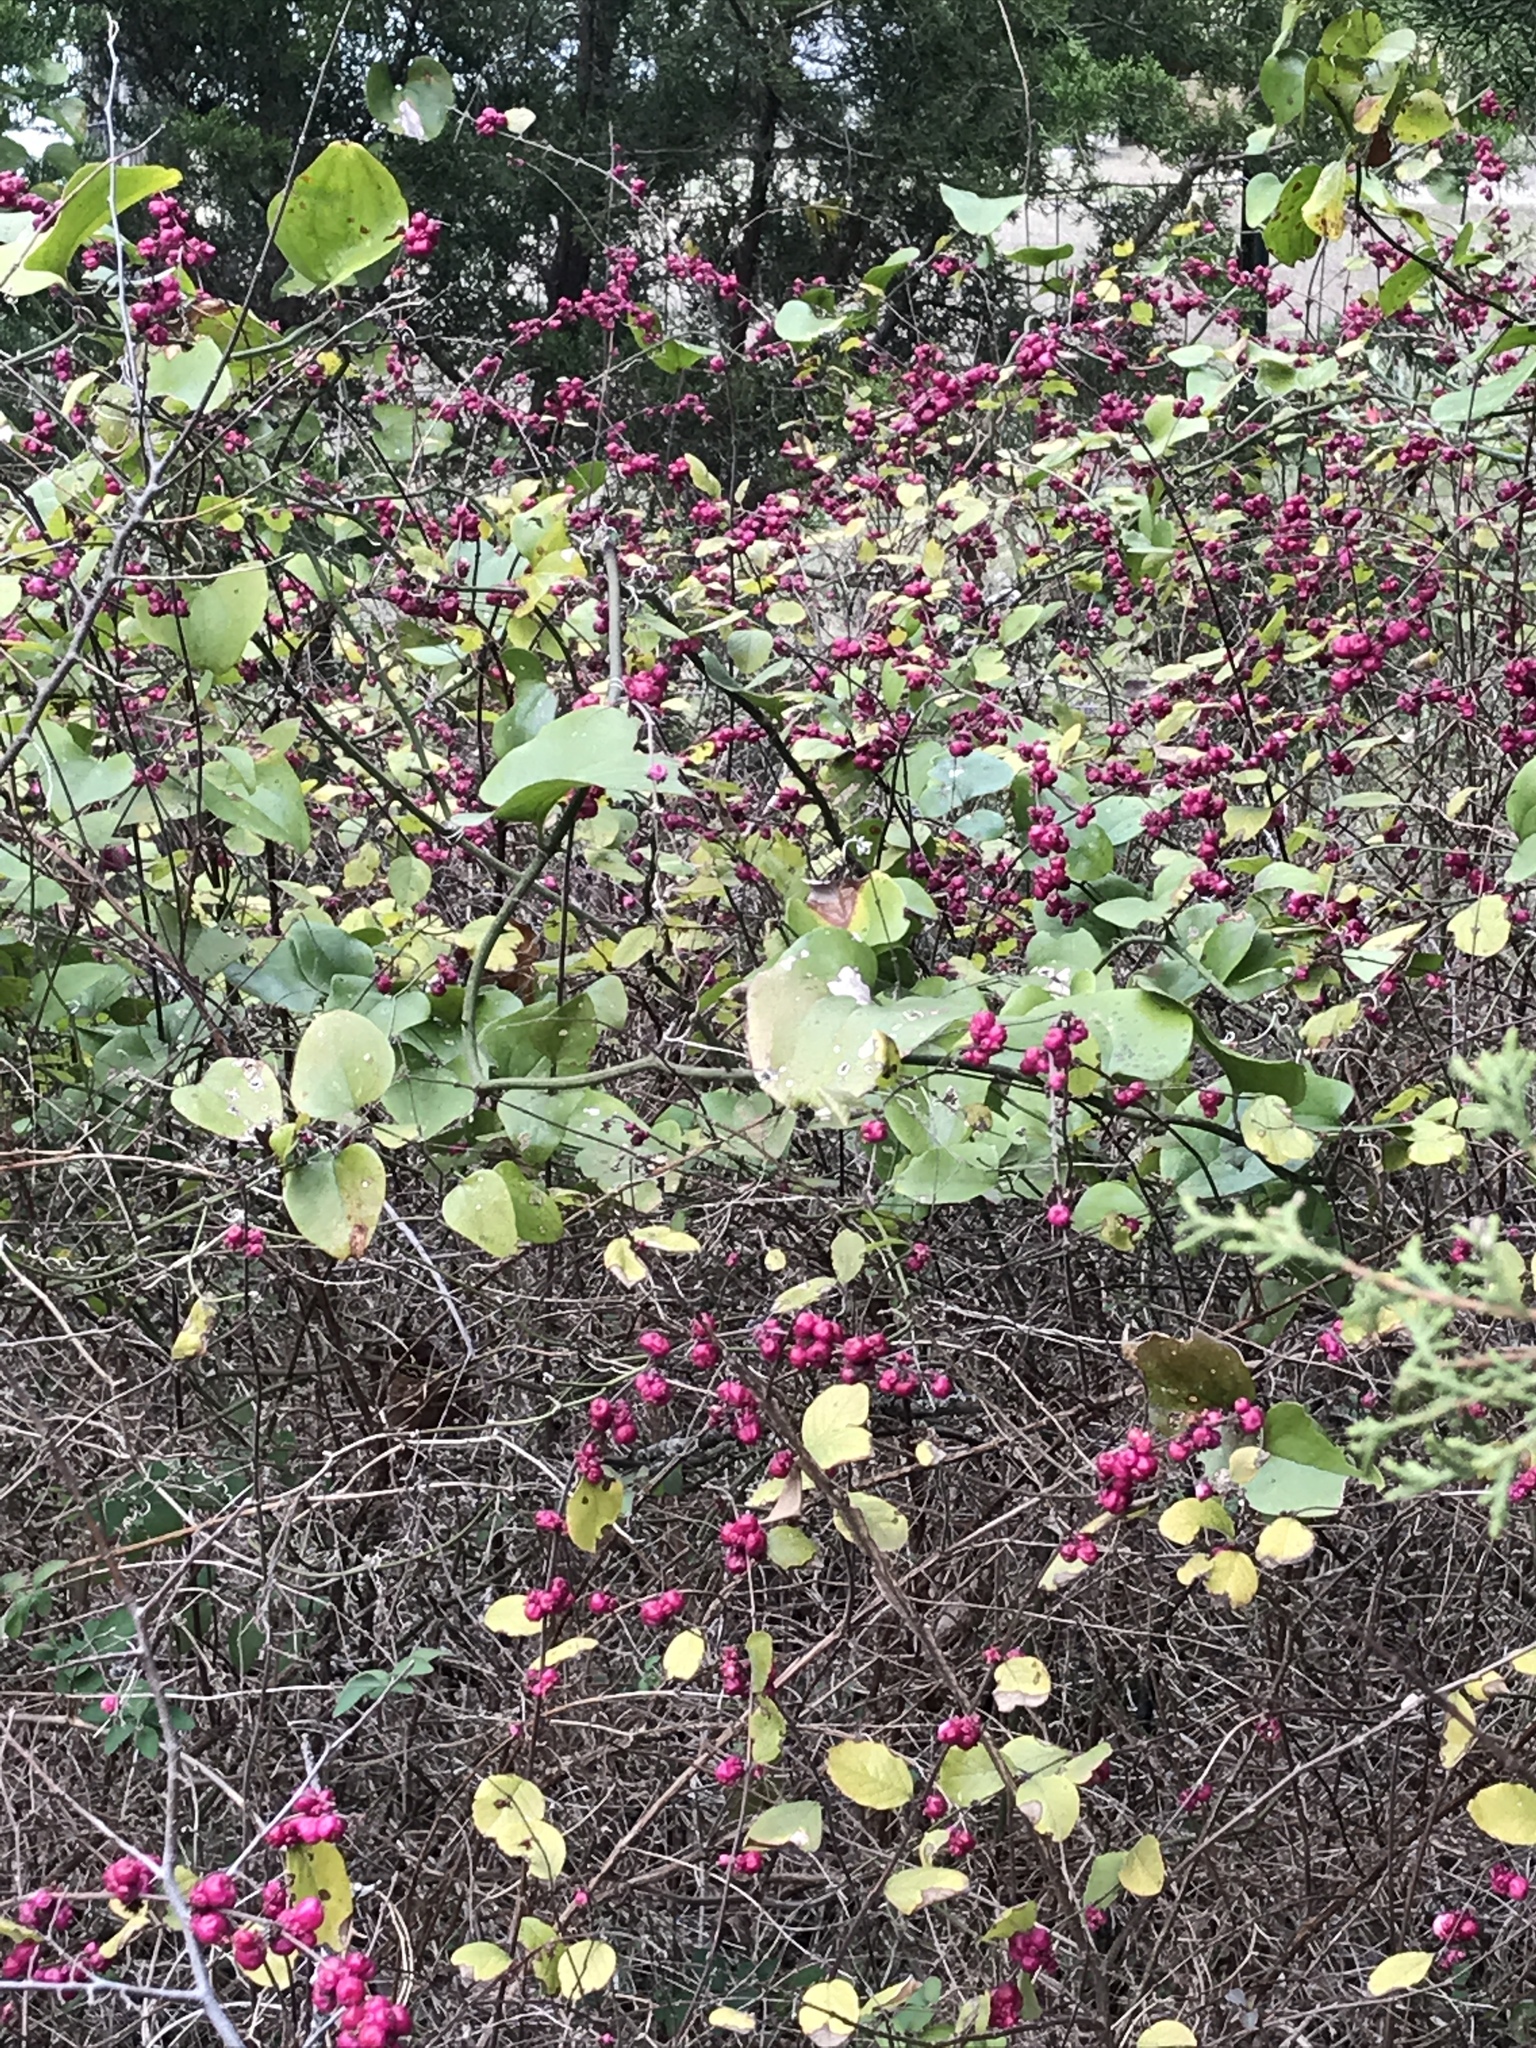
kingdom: Plantae
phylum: Tracheophyta
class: Magnoliopsida
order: Dipsacales
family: Caprifoliaceae
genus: Symphoricarpos
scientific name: Symphoricarpos orbiculatus
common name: Coralberry
